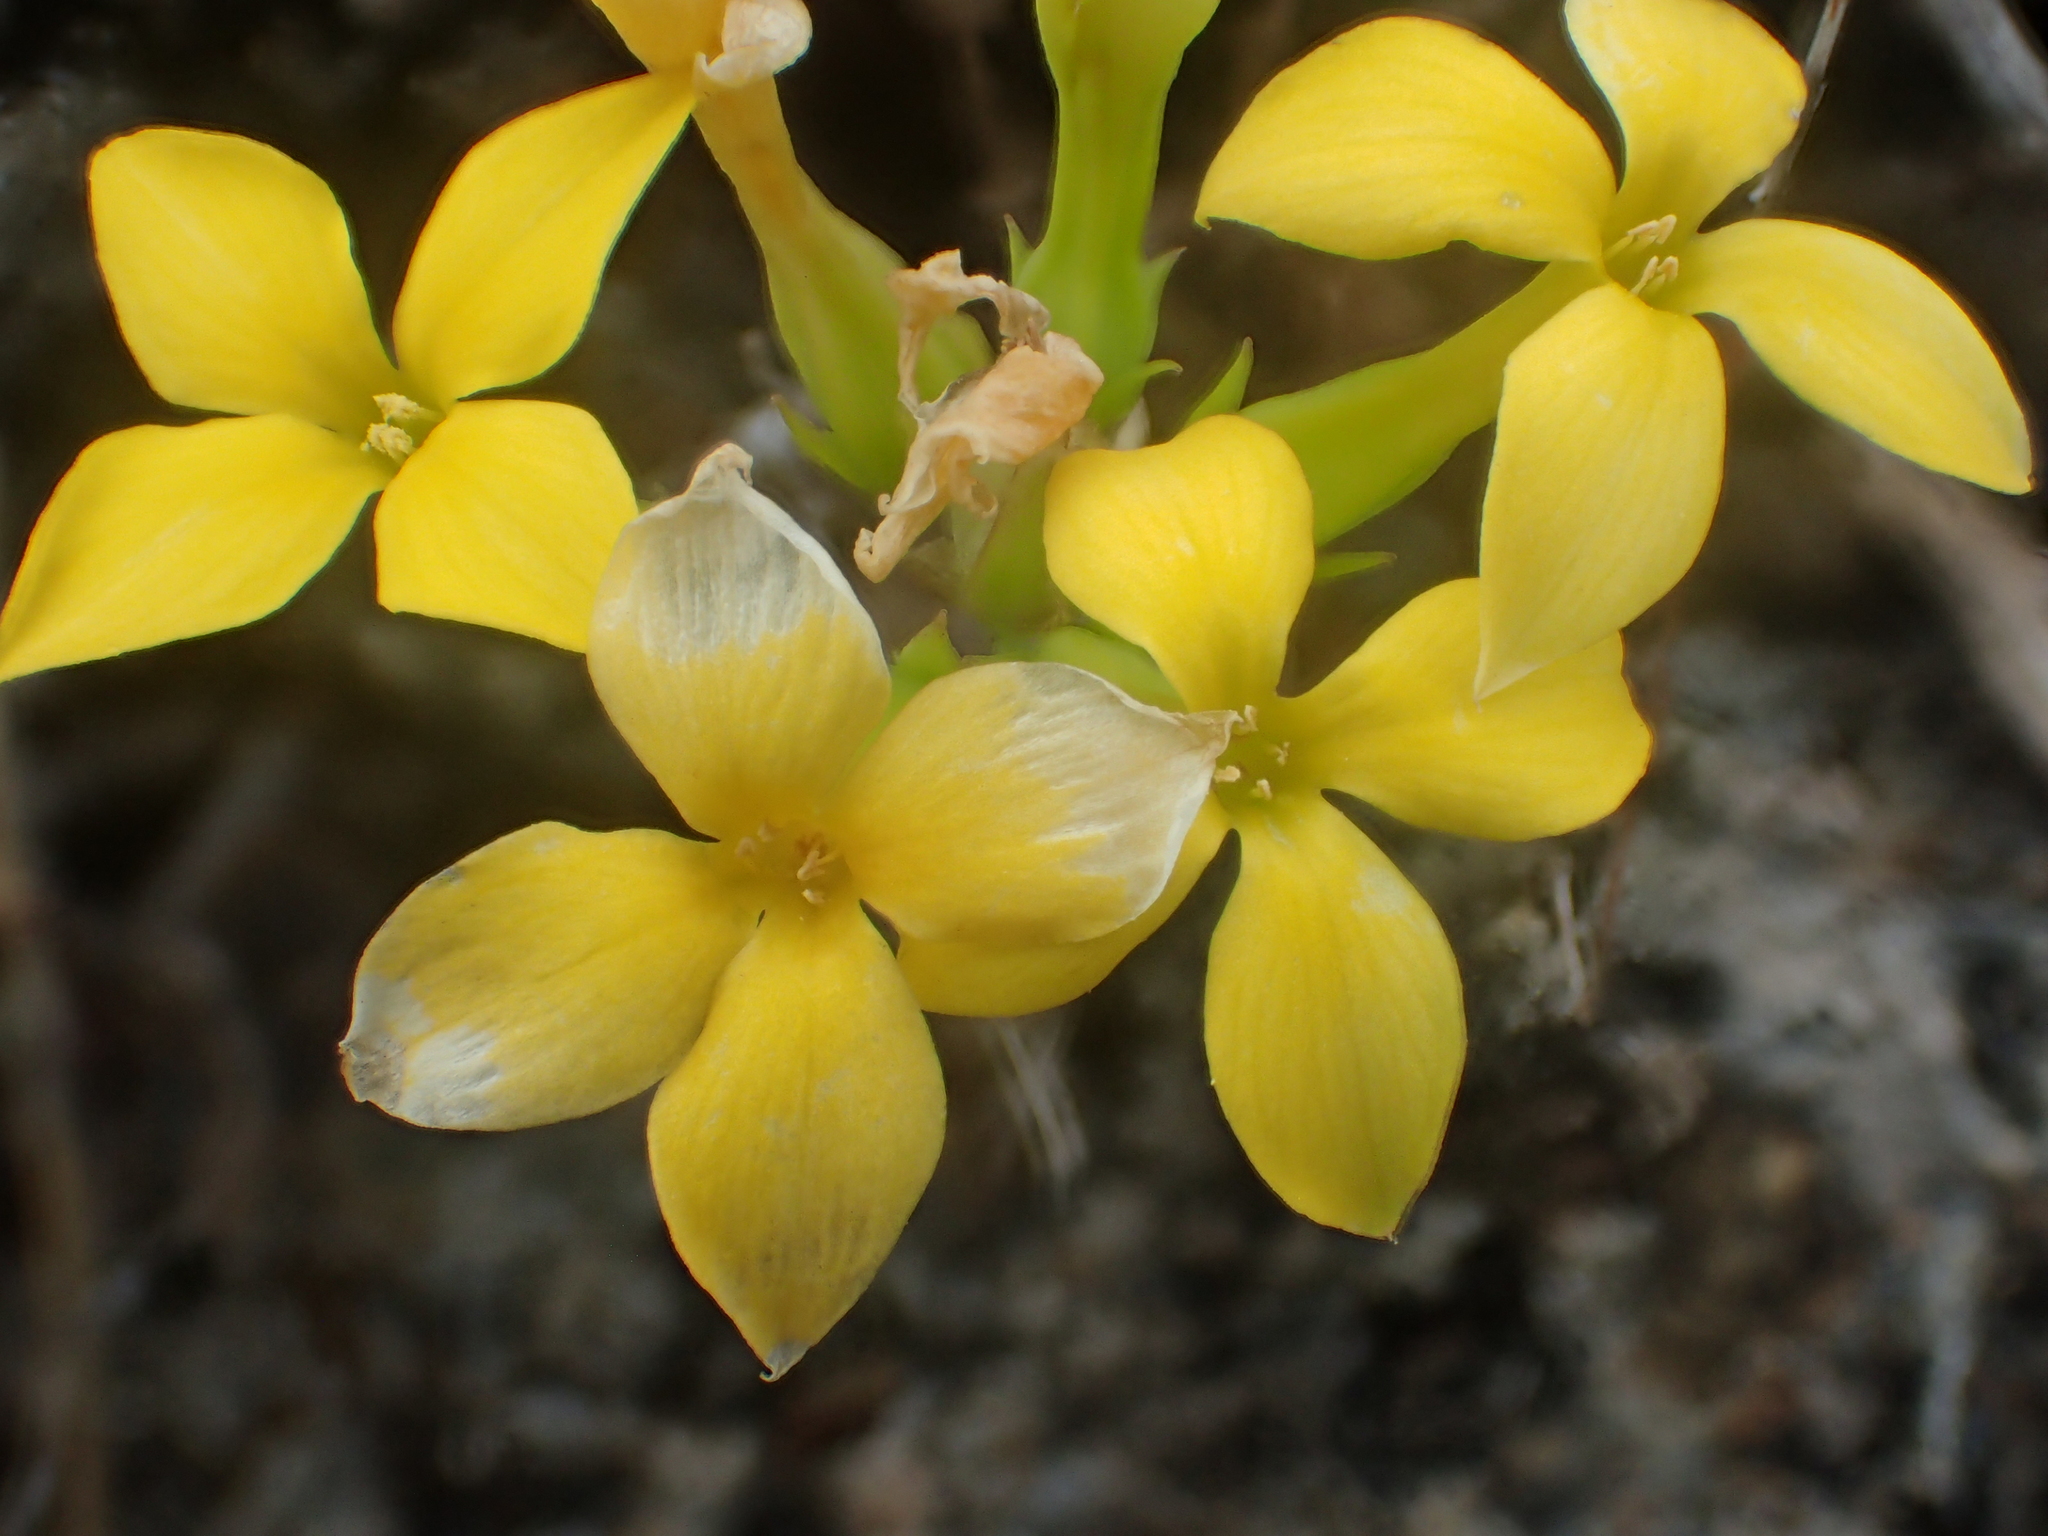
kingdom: Plantae
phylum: Tracheophyta
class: Magnoliopsida
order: Saxifragales
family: Crassulaceae
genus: Kalanchoe
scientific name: Kalanchoe integra
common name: Neverdie
